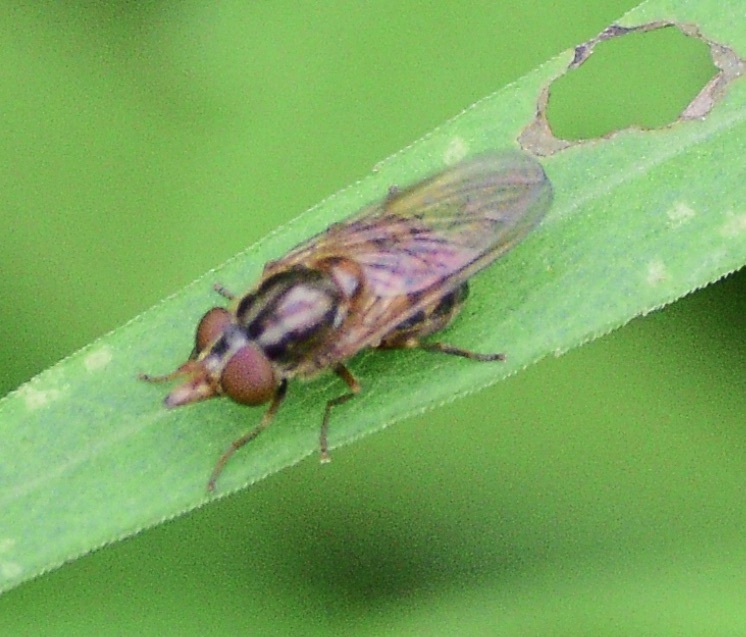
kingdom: Animalia
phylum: Arthropoda
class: Insecta
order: Diptera
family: Syrphidae
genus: Rhingia
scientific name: Rhingia nasica
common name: American snout fly
